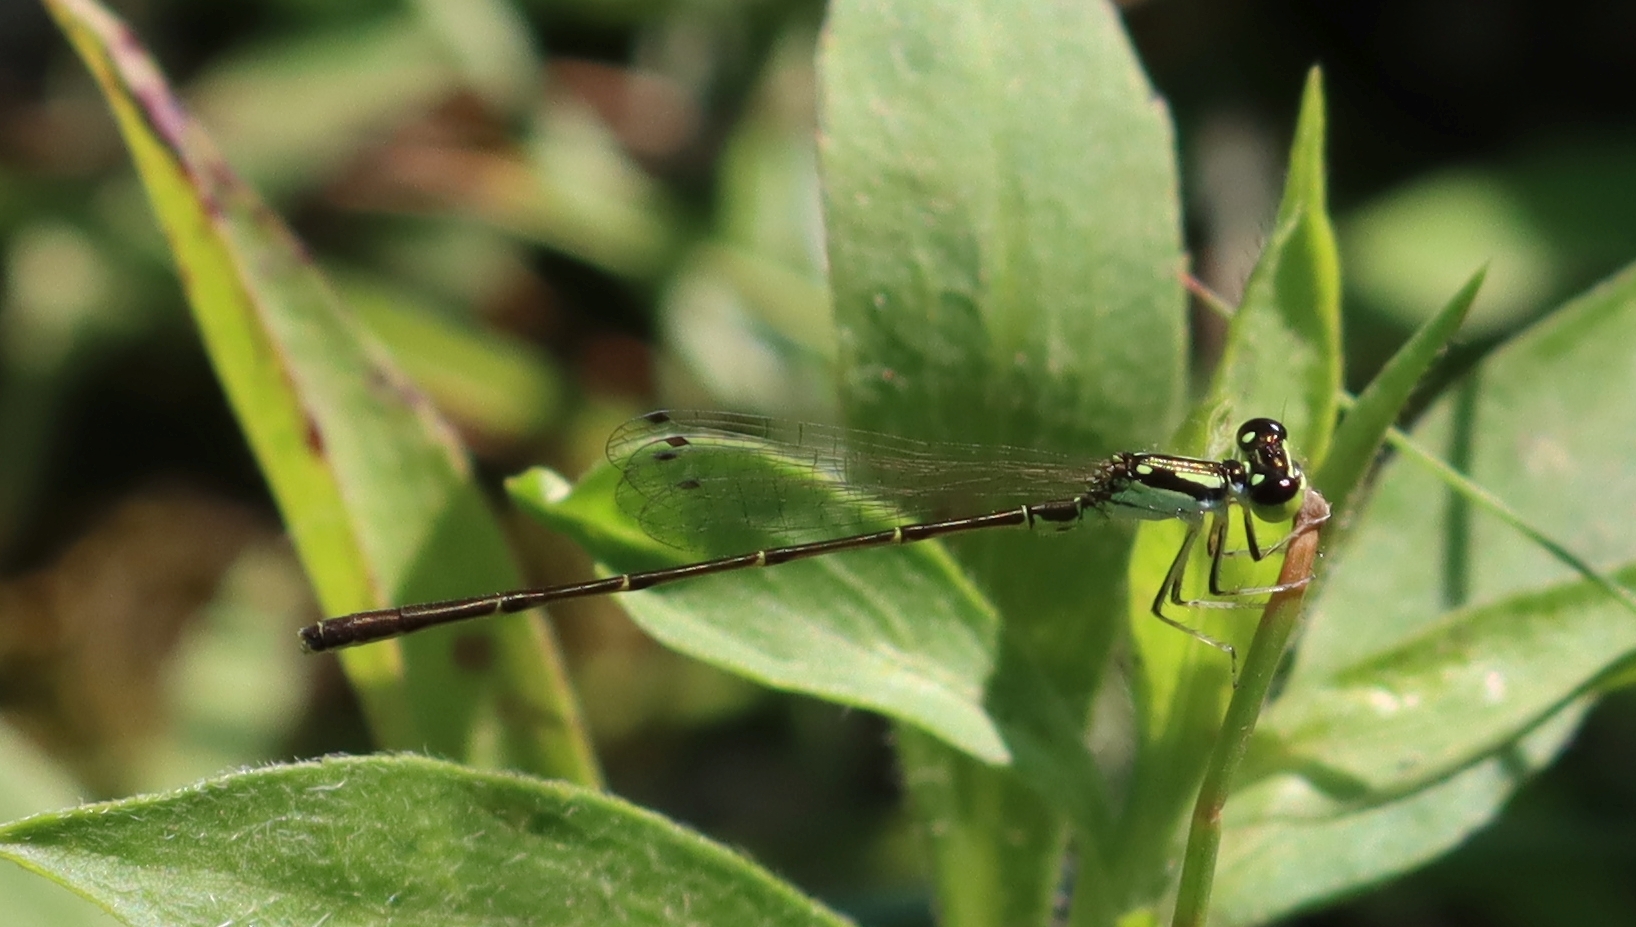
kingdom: Animalia
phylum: Arthropoda
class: Insecta
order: Odonata
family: Coenagrionidae
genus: Ischnura
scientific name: Ischnura posita
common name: Fragile forktail
